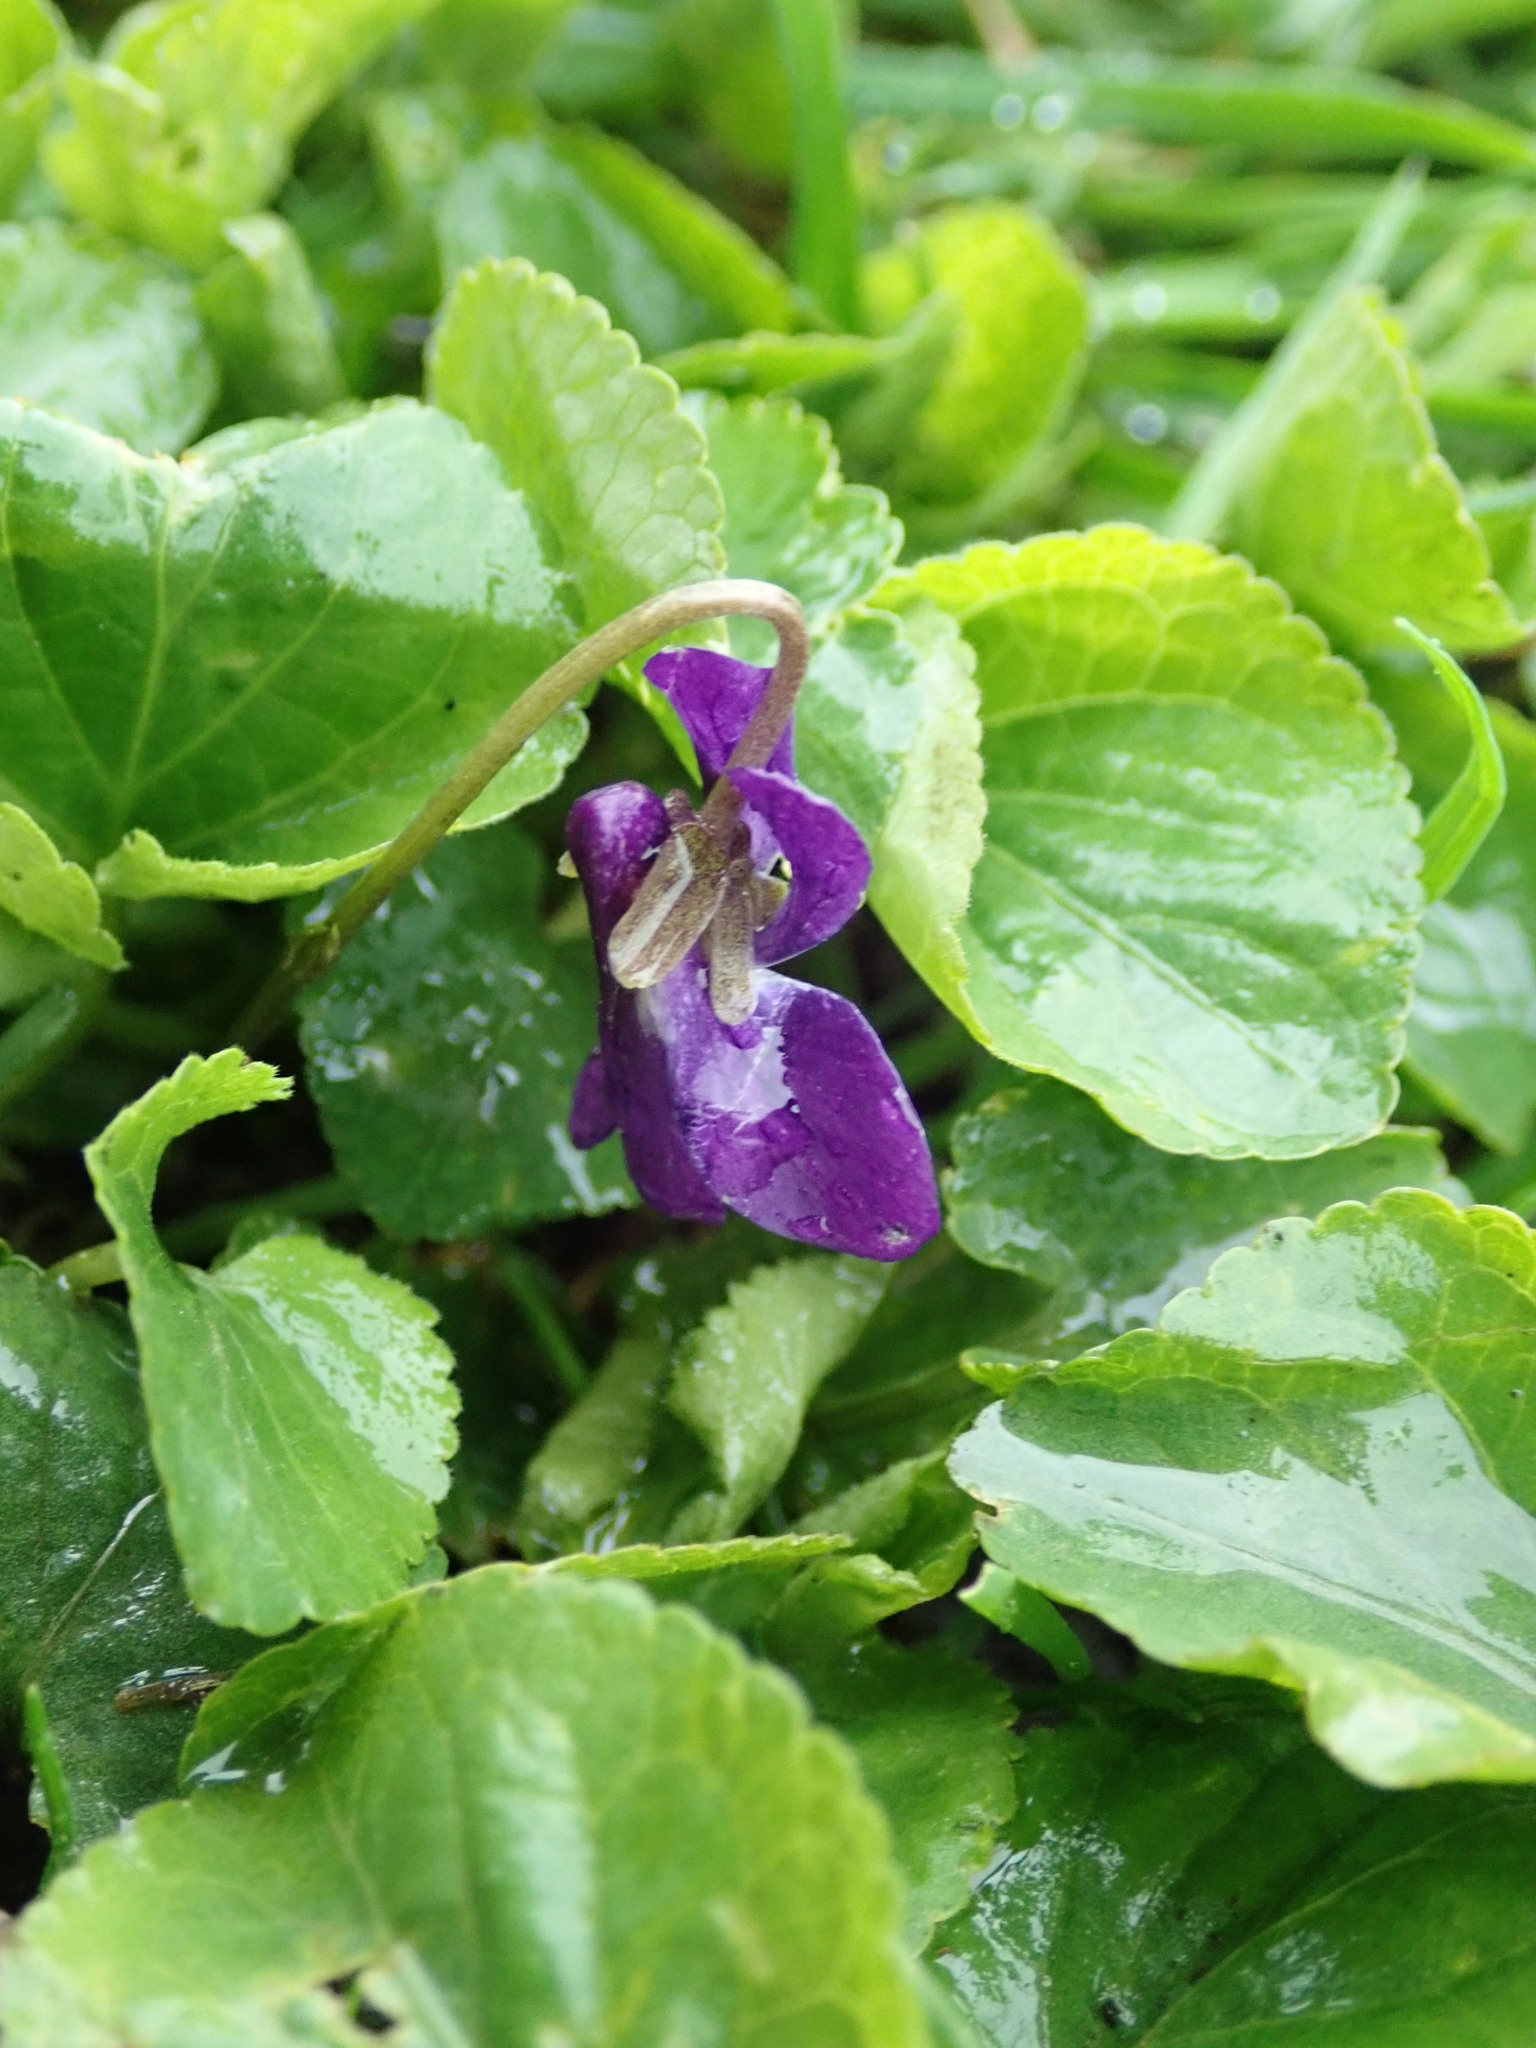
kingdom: Plantae
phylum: Tracheophyta
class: Magnoliopsida
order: Malpighiales
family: Violaceae
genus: Viola
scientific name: Viola odorata
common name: Sweet violet
